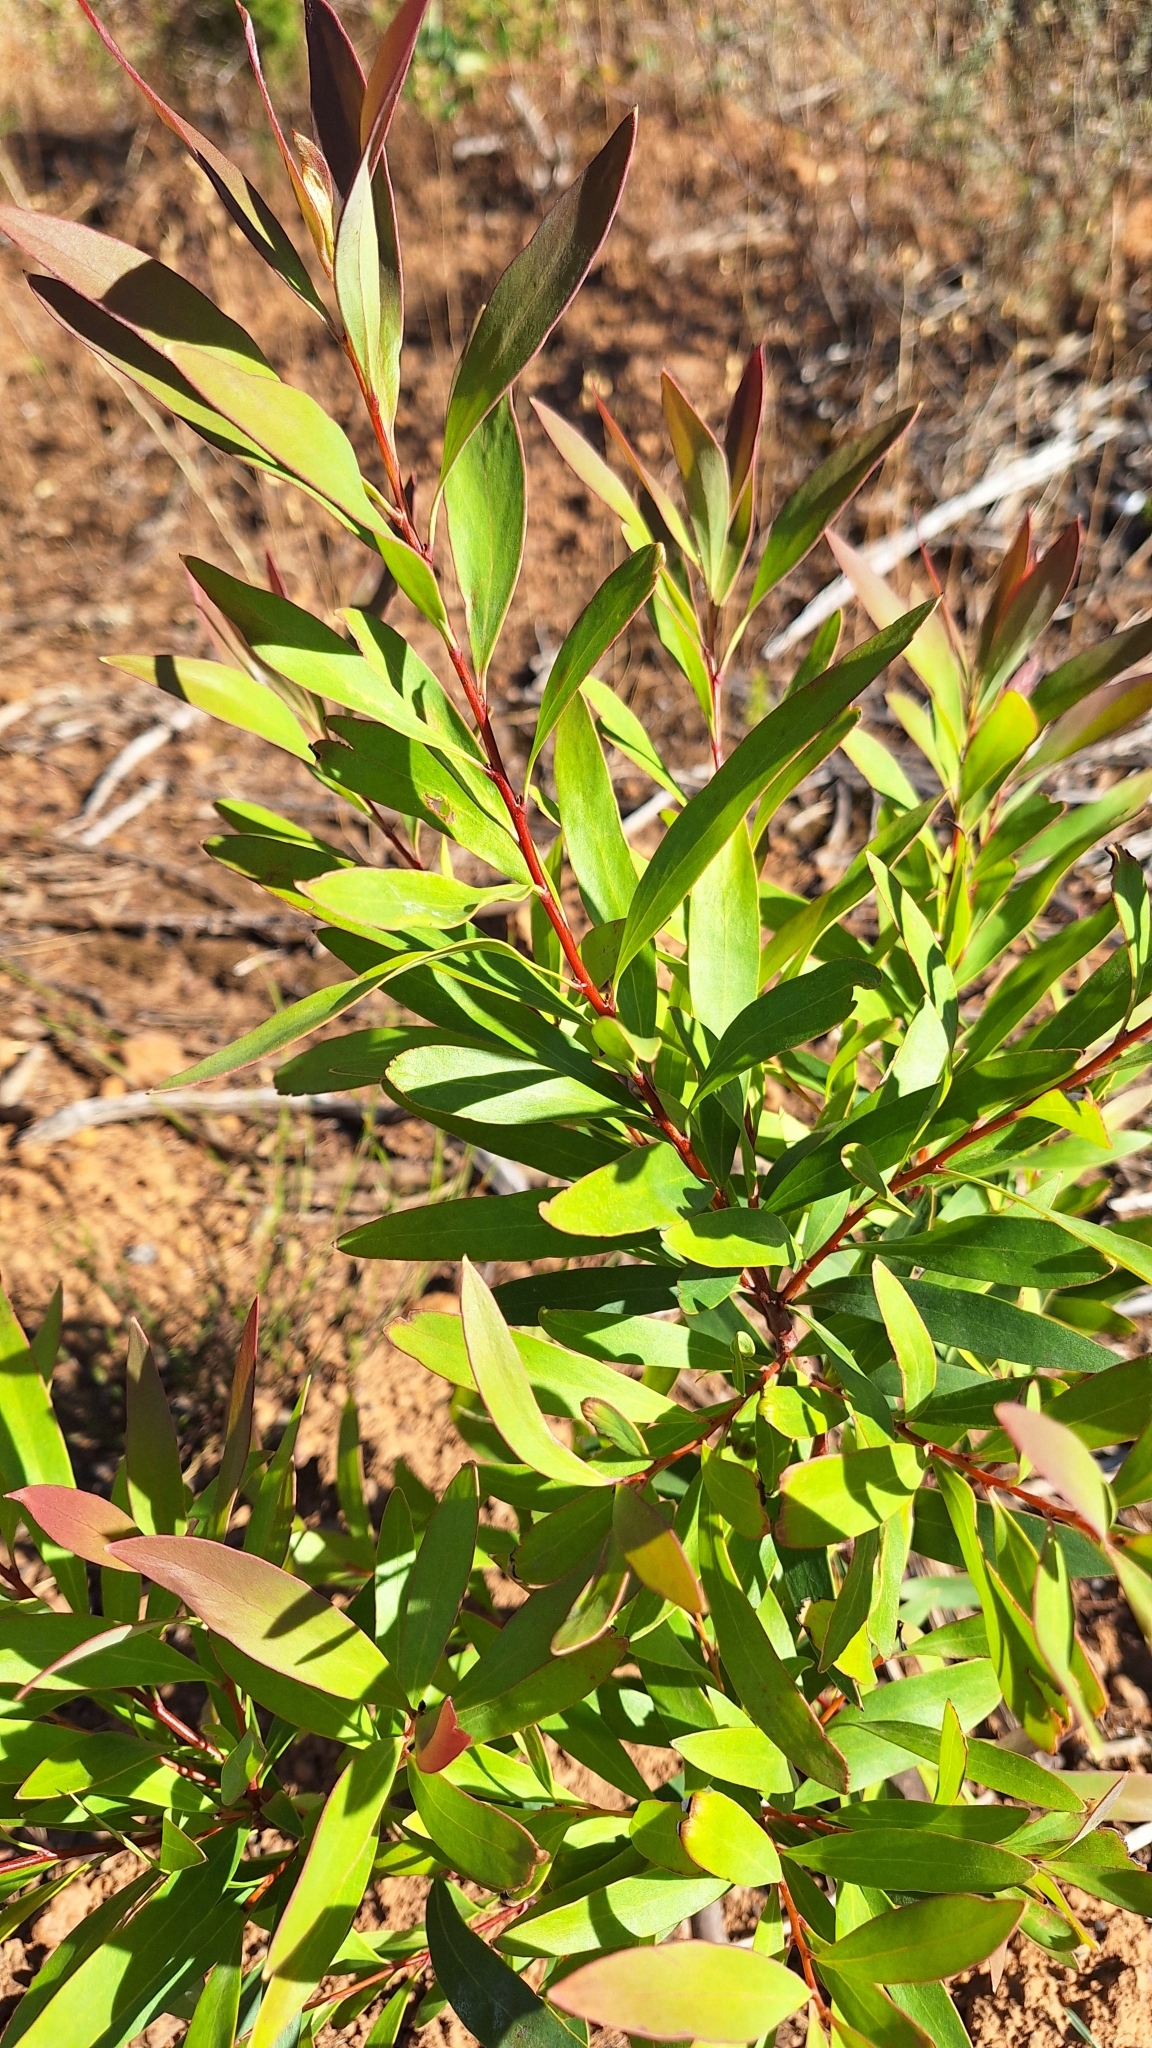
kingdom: Plantae
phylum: Tracheophyta
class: Magnoliopsida
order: Proteales
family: Proteaceae
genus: Hakea
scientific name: Hakea salicifolia
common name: Willow hakea
